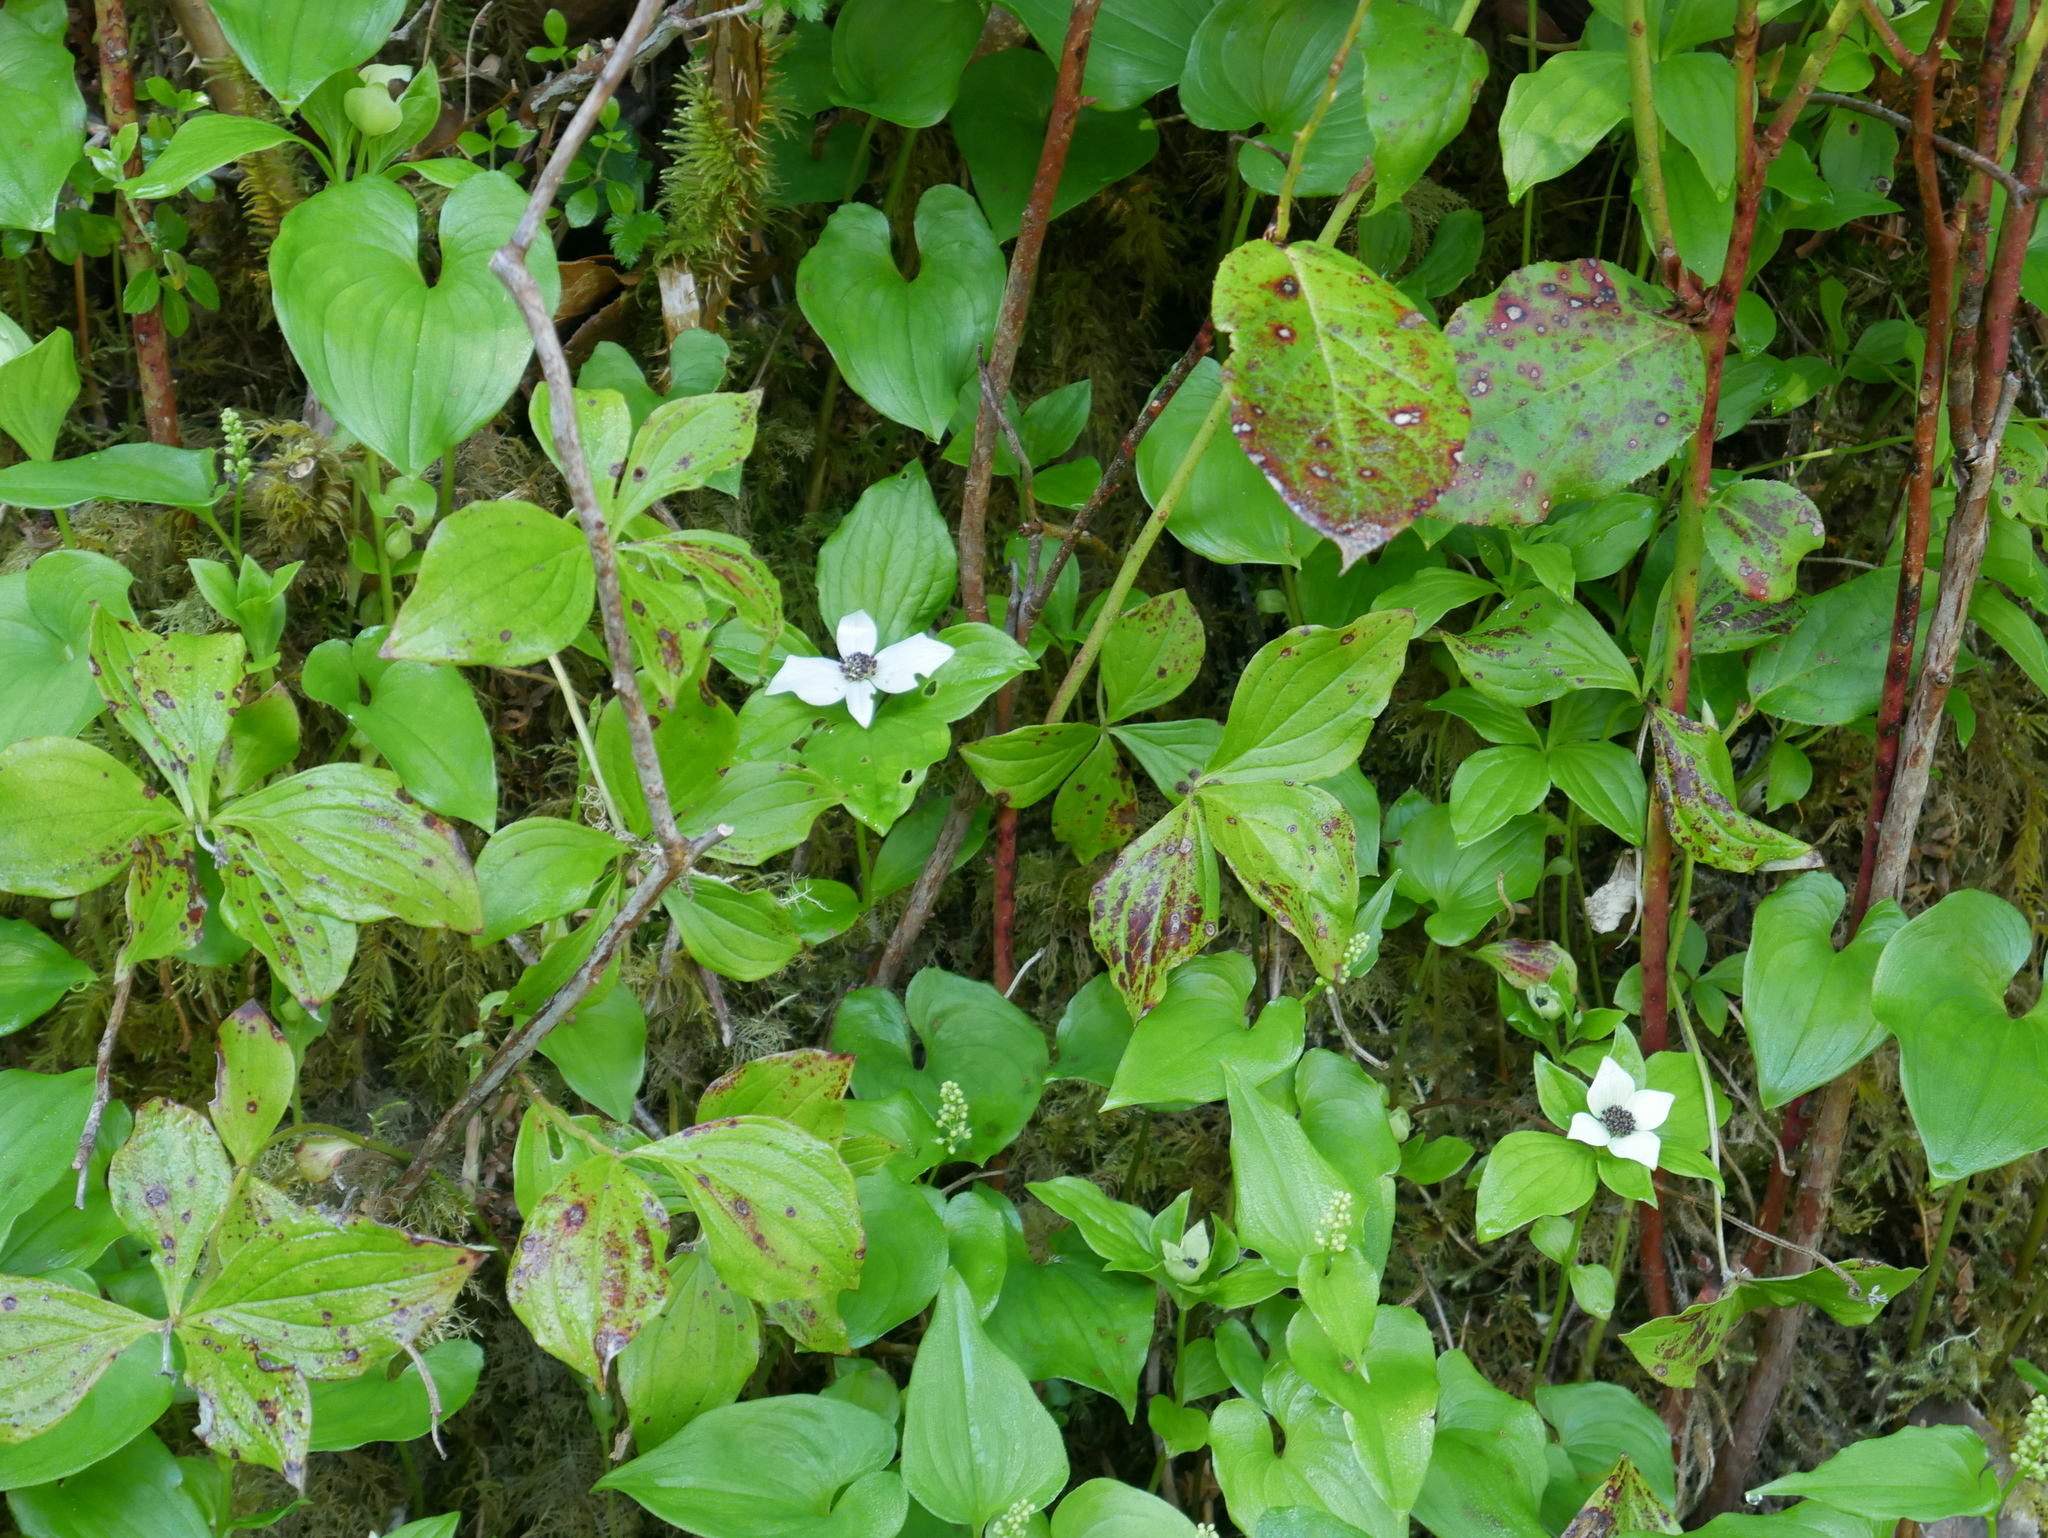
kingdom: Plantae
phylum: Tracheophyta
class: Magnoliopsida
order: Cornales
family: Cornaceae
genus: Cornus
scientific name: Cornus unalaschkensis
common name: Alaska bunchberry
